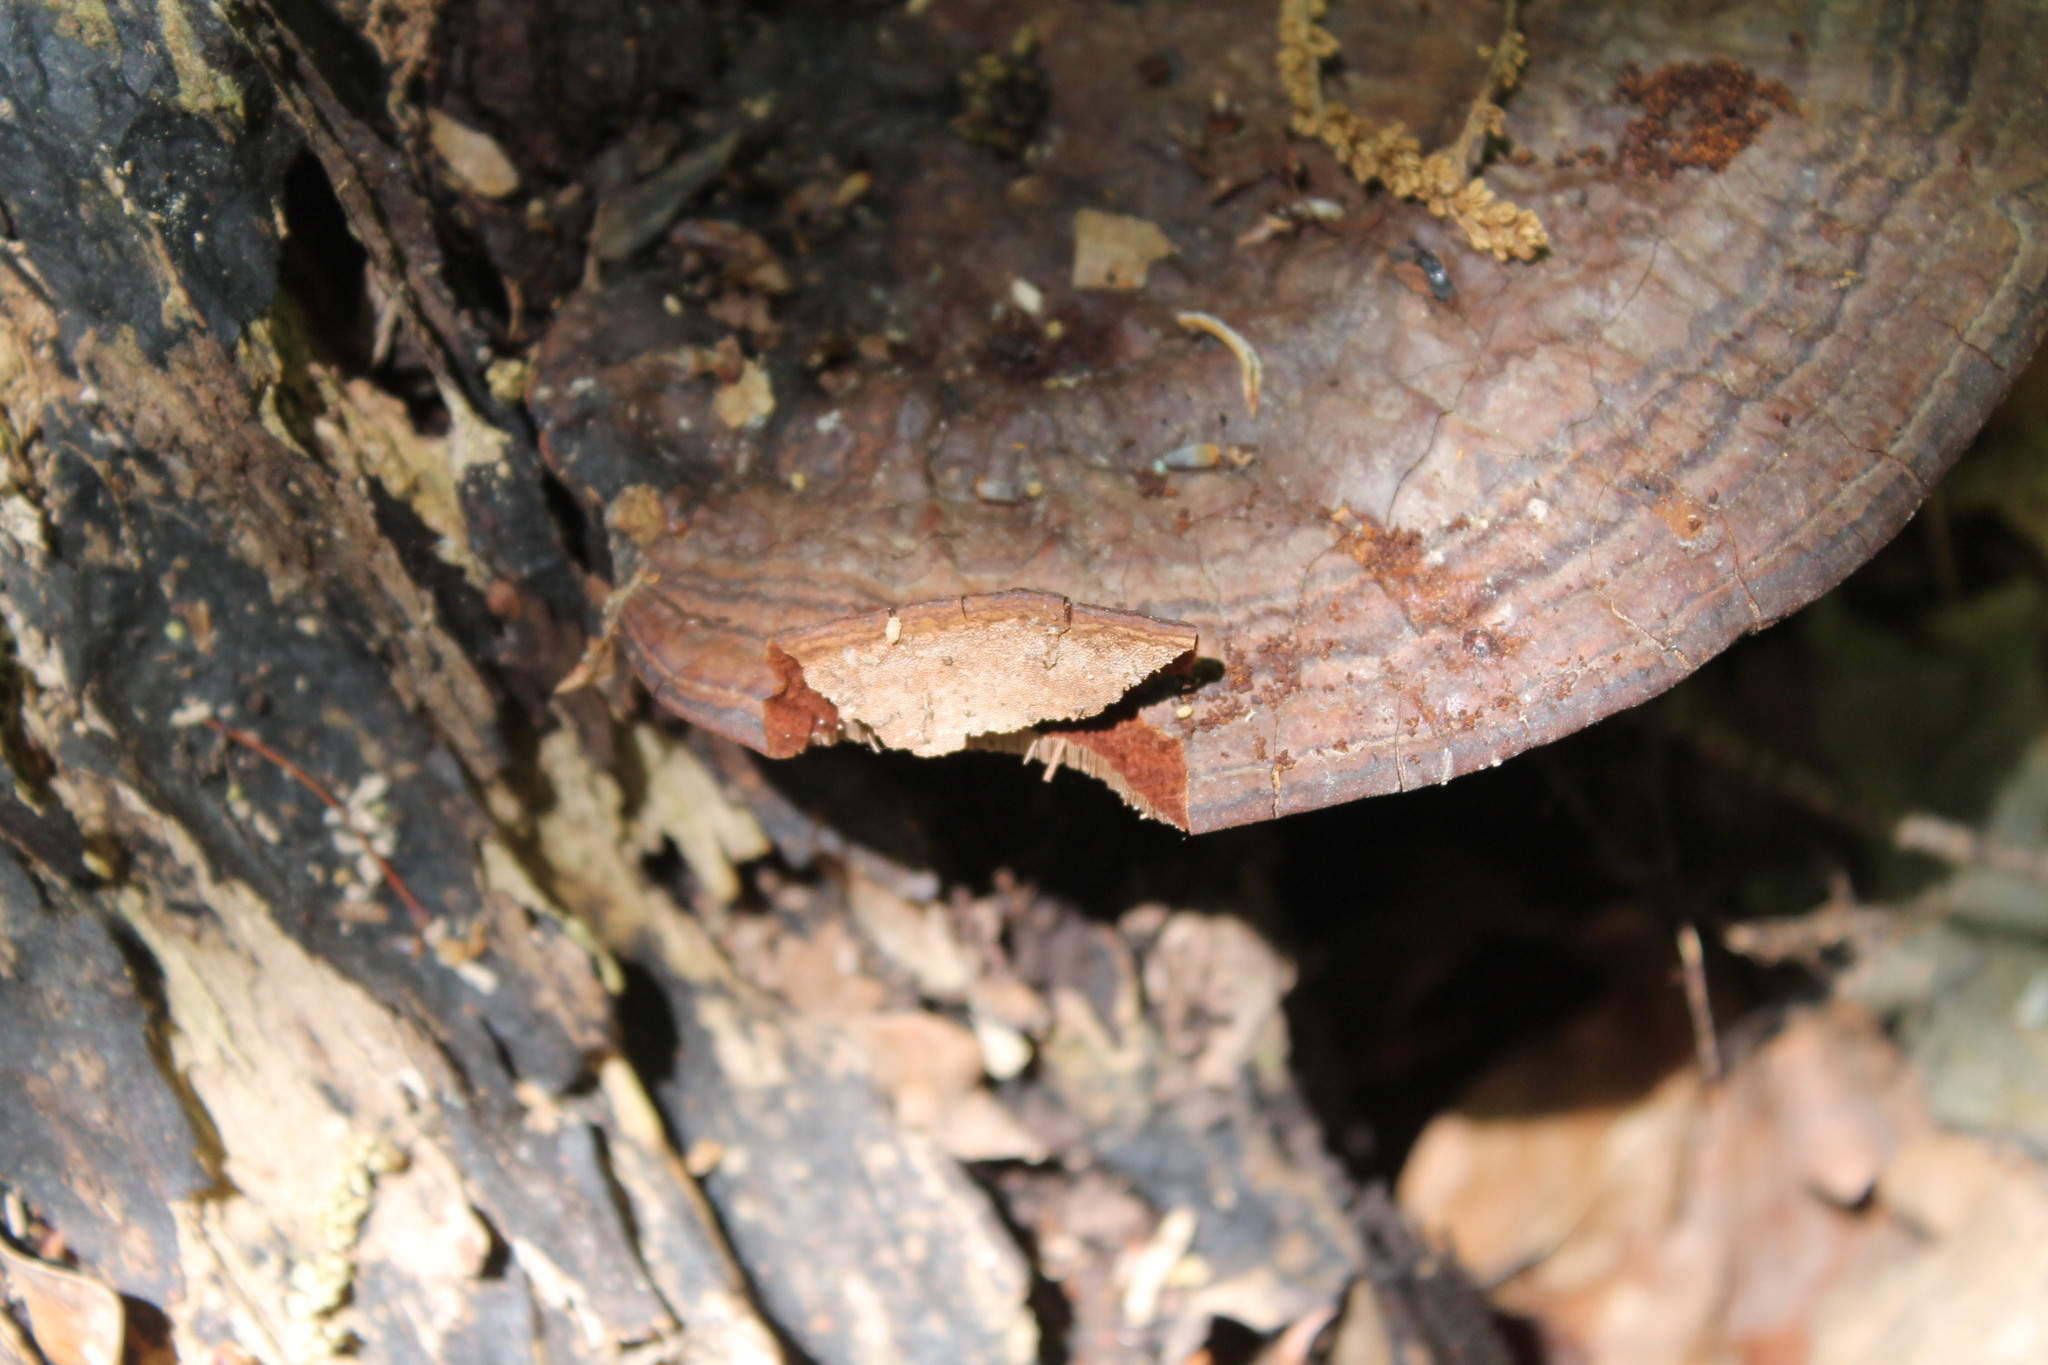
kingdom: Fungi
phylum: Basidiomycota
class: Agaricomycetes
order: Polyporales
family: Polyporaceae
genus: Ganoderma
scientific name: Ganoderma applanatum
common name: Artist's bracket
